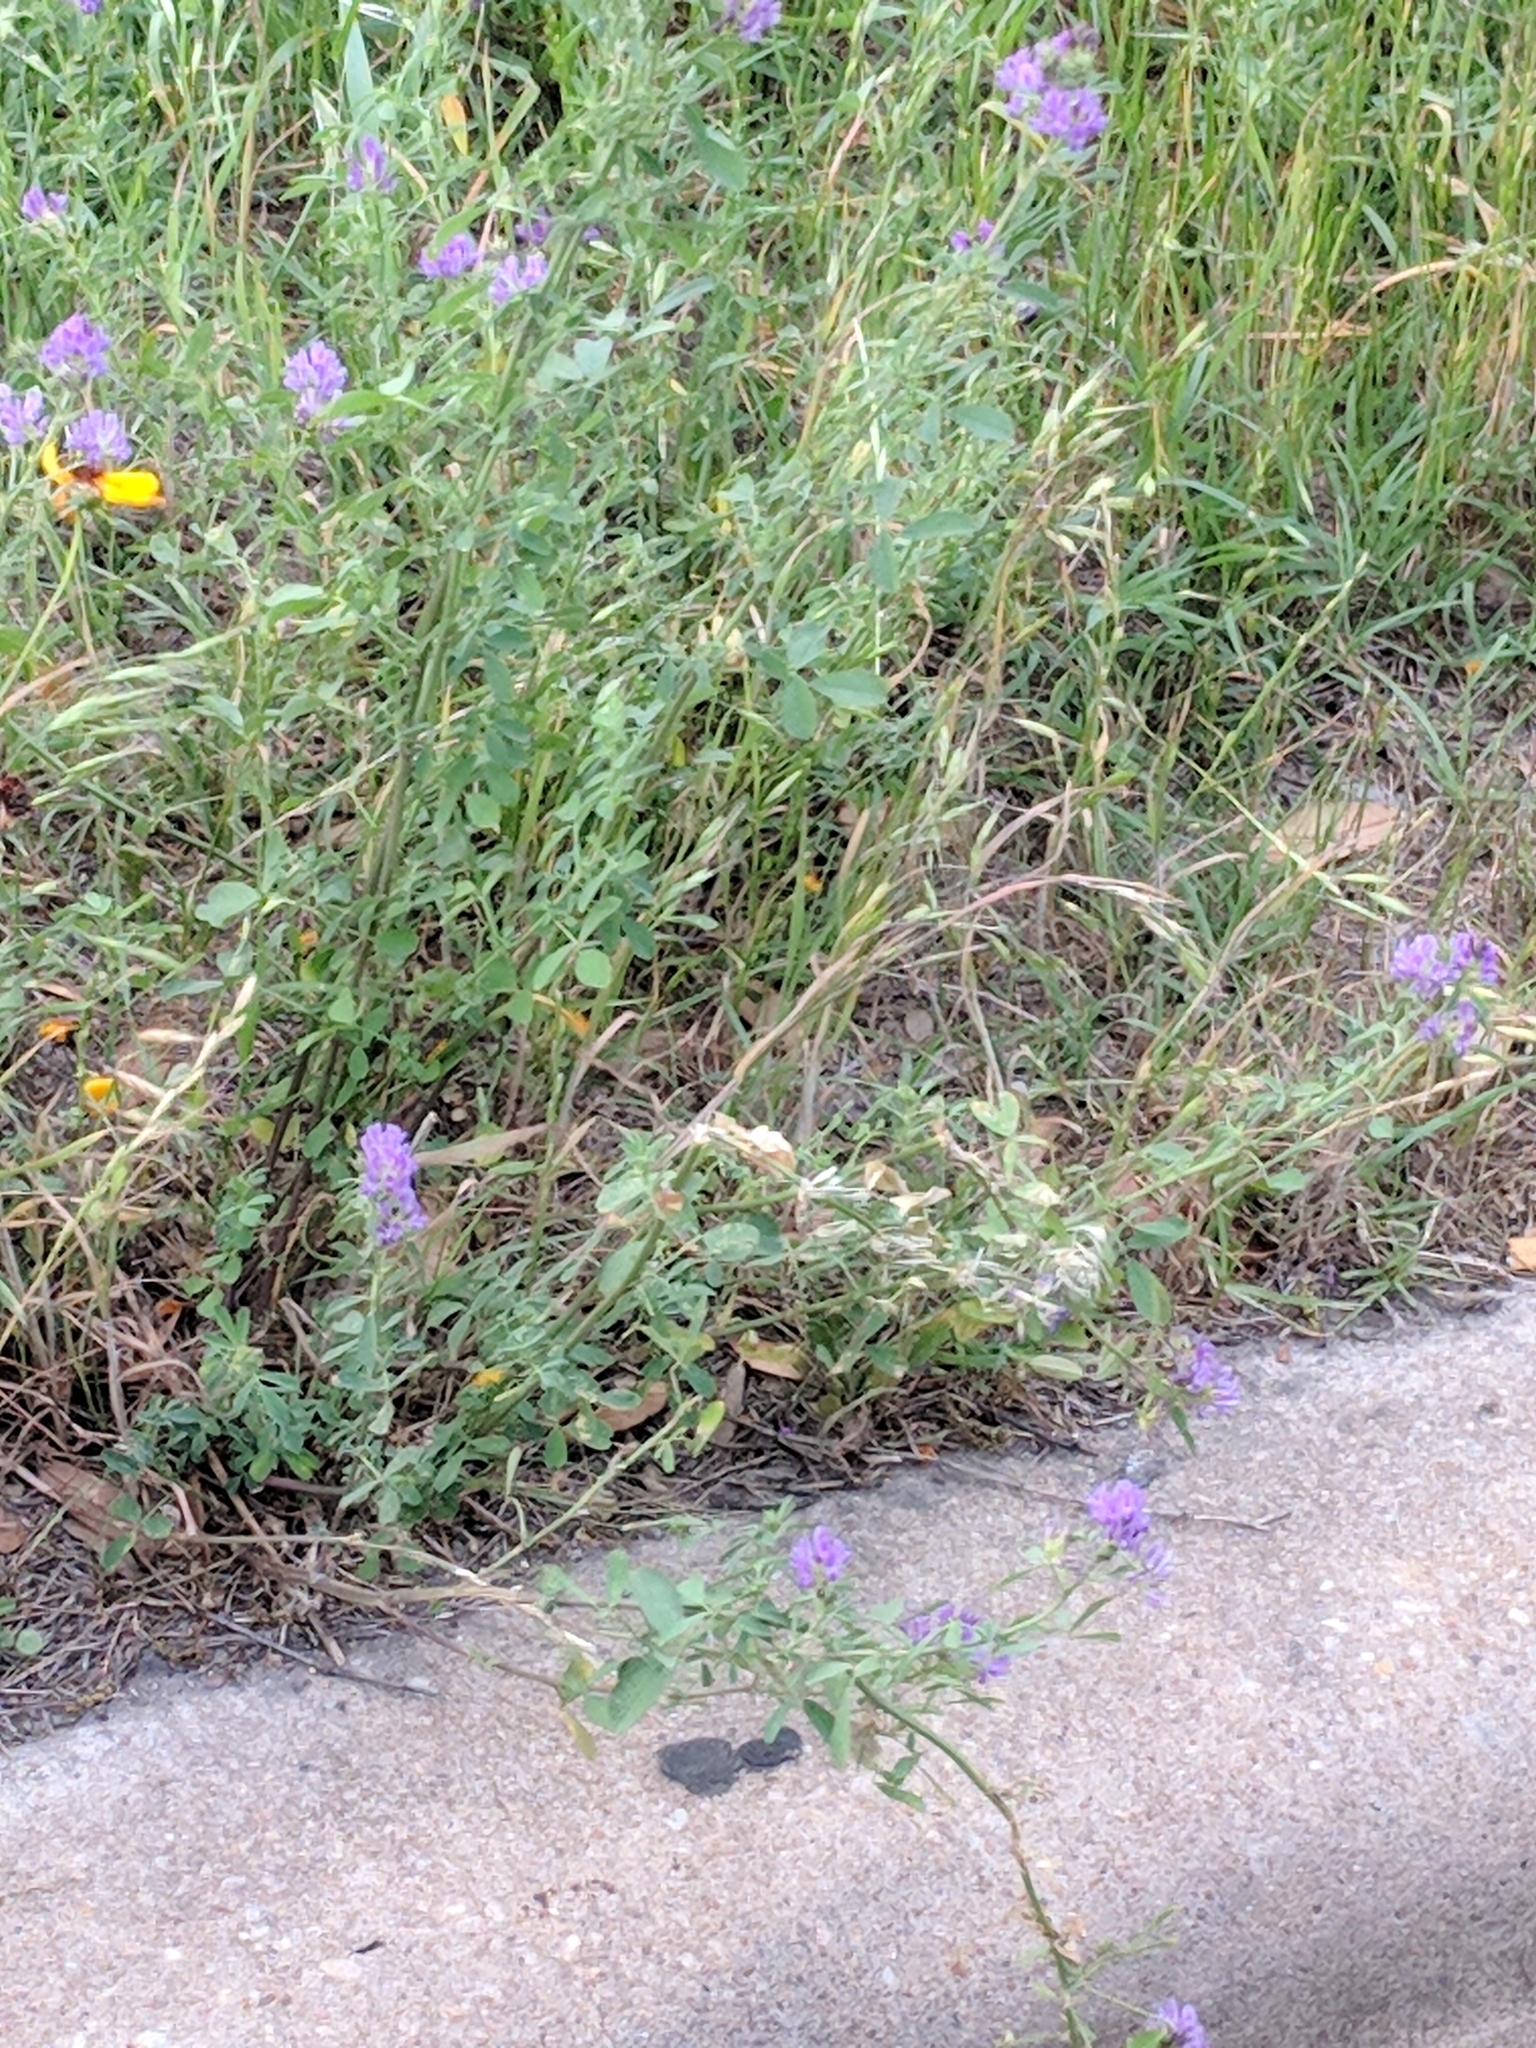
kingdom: Plantae
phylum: Tracheophyta
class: Magnoliopsida
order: Fabales
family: Fabaceae
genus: Medicago
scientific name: Medicago sativa
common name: Alfalfa
